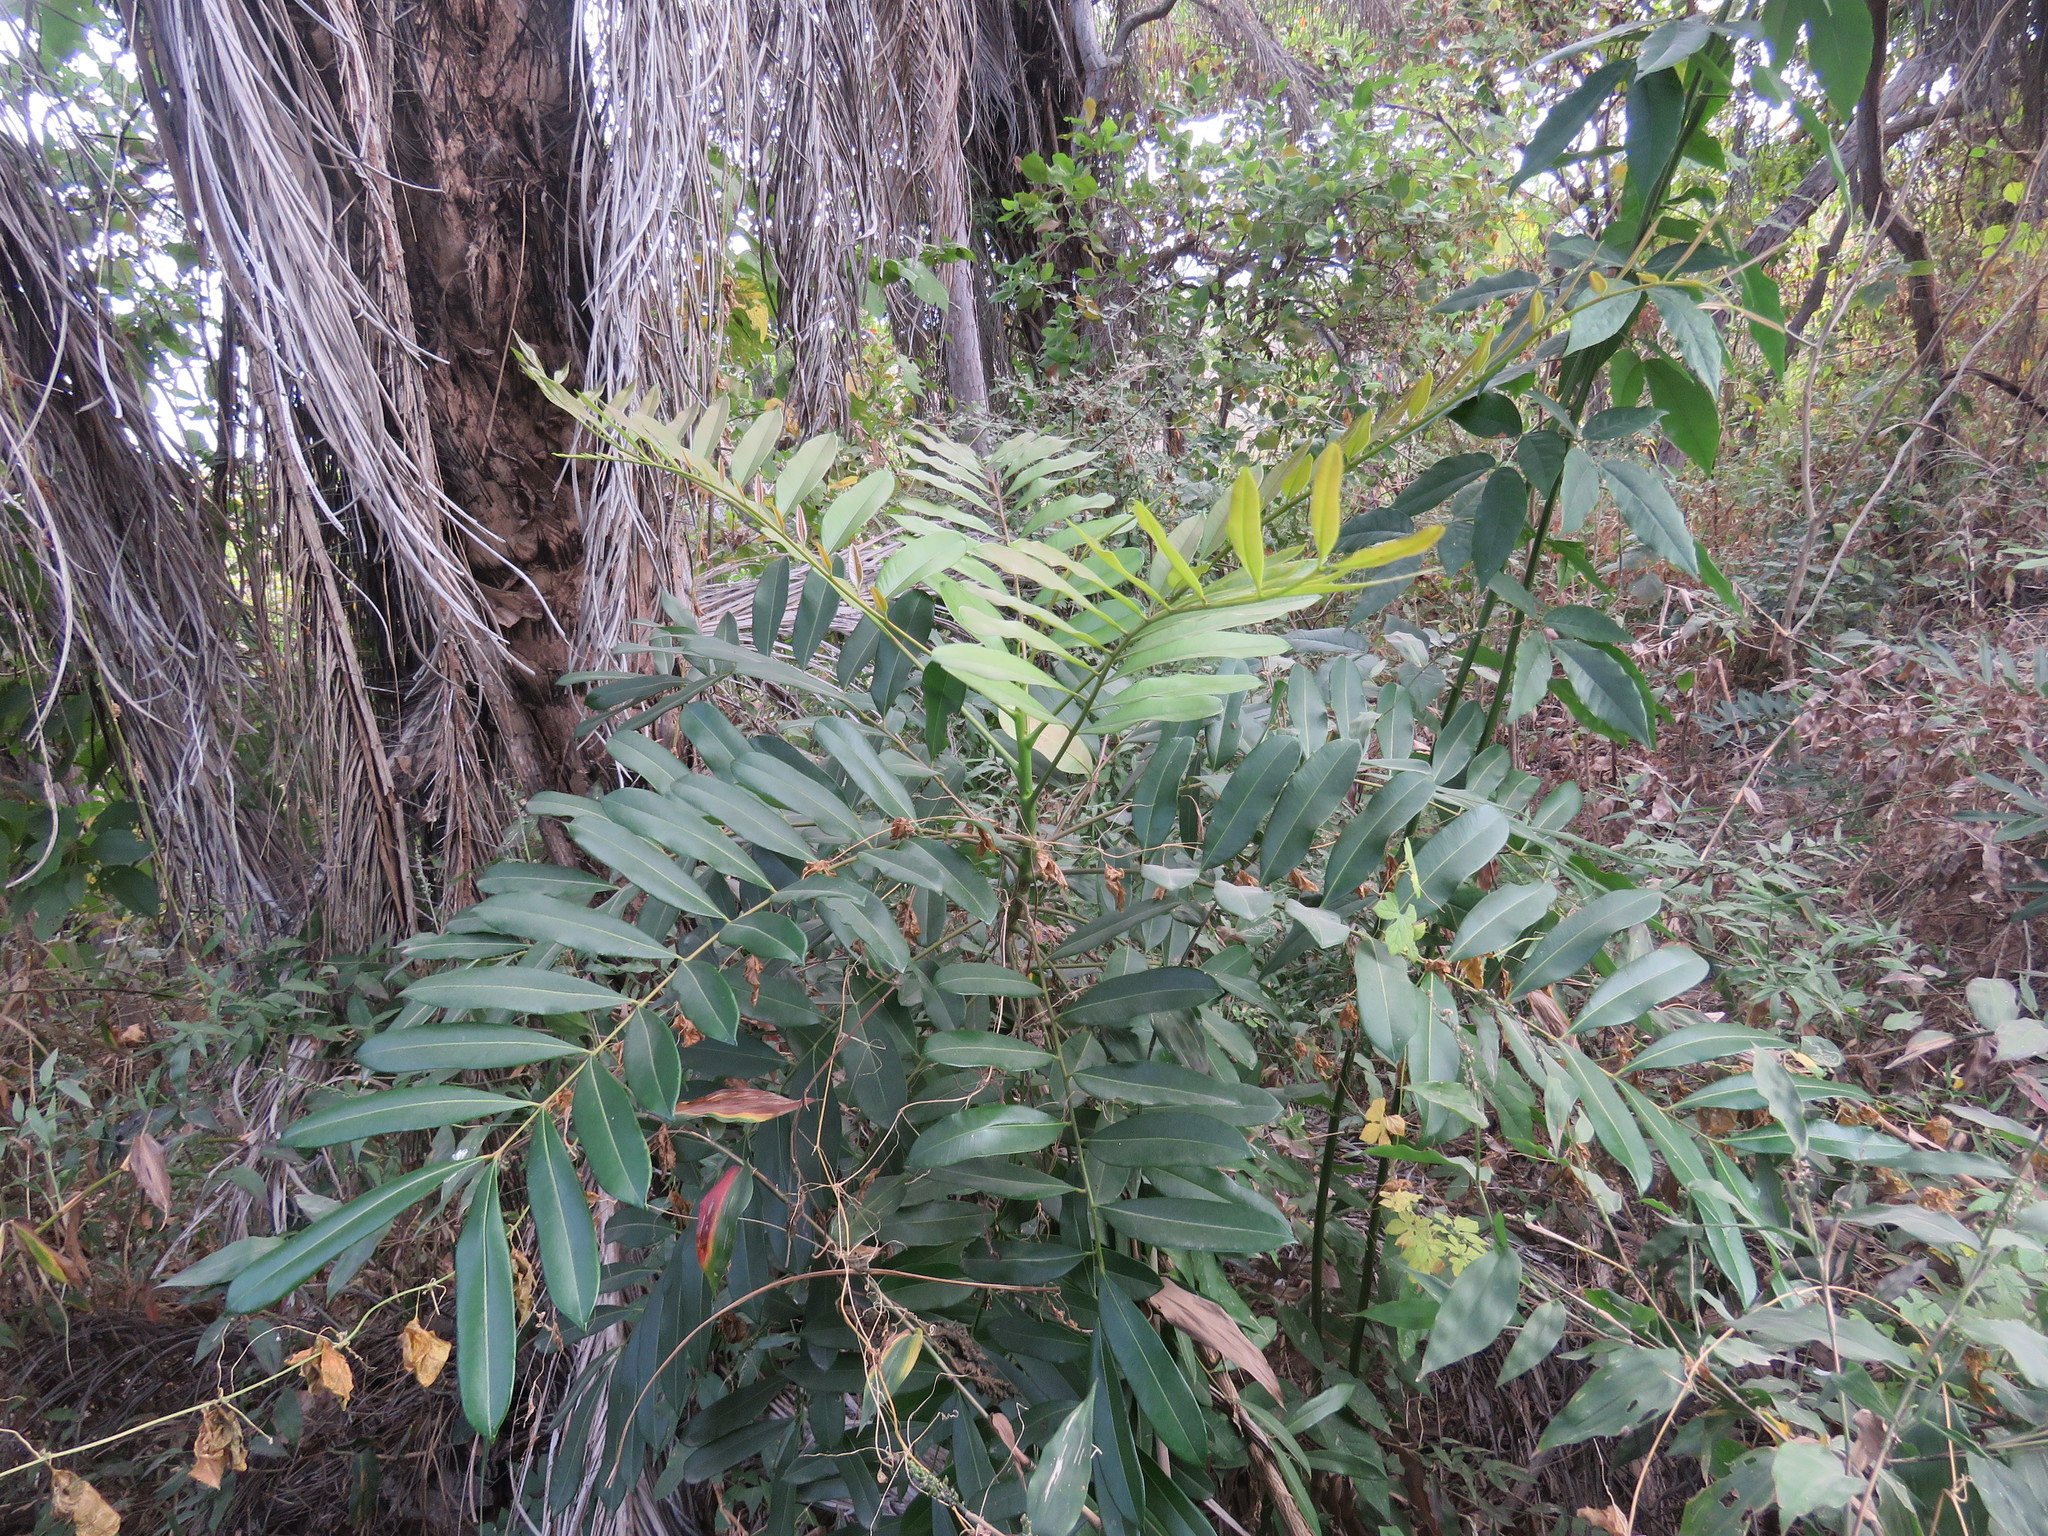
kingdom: Plantae
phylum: Tracheophyta
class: Magnoliopsida
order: Sapindales
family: Simaroubaceae
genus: Simarouba
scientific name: Simarouba amara
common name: Bitterwood
